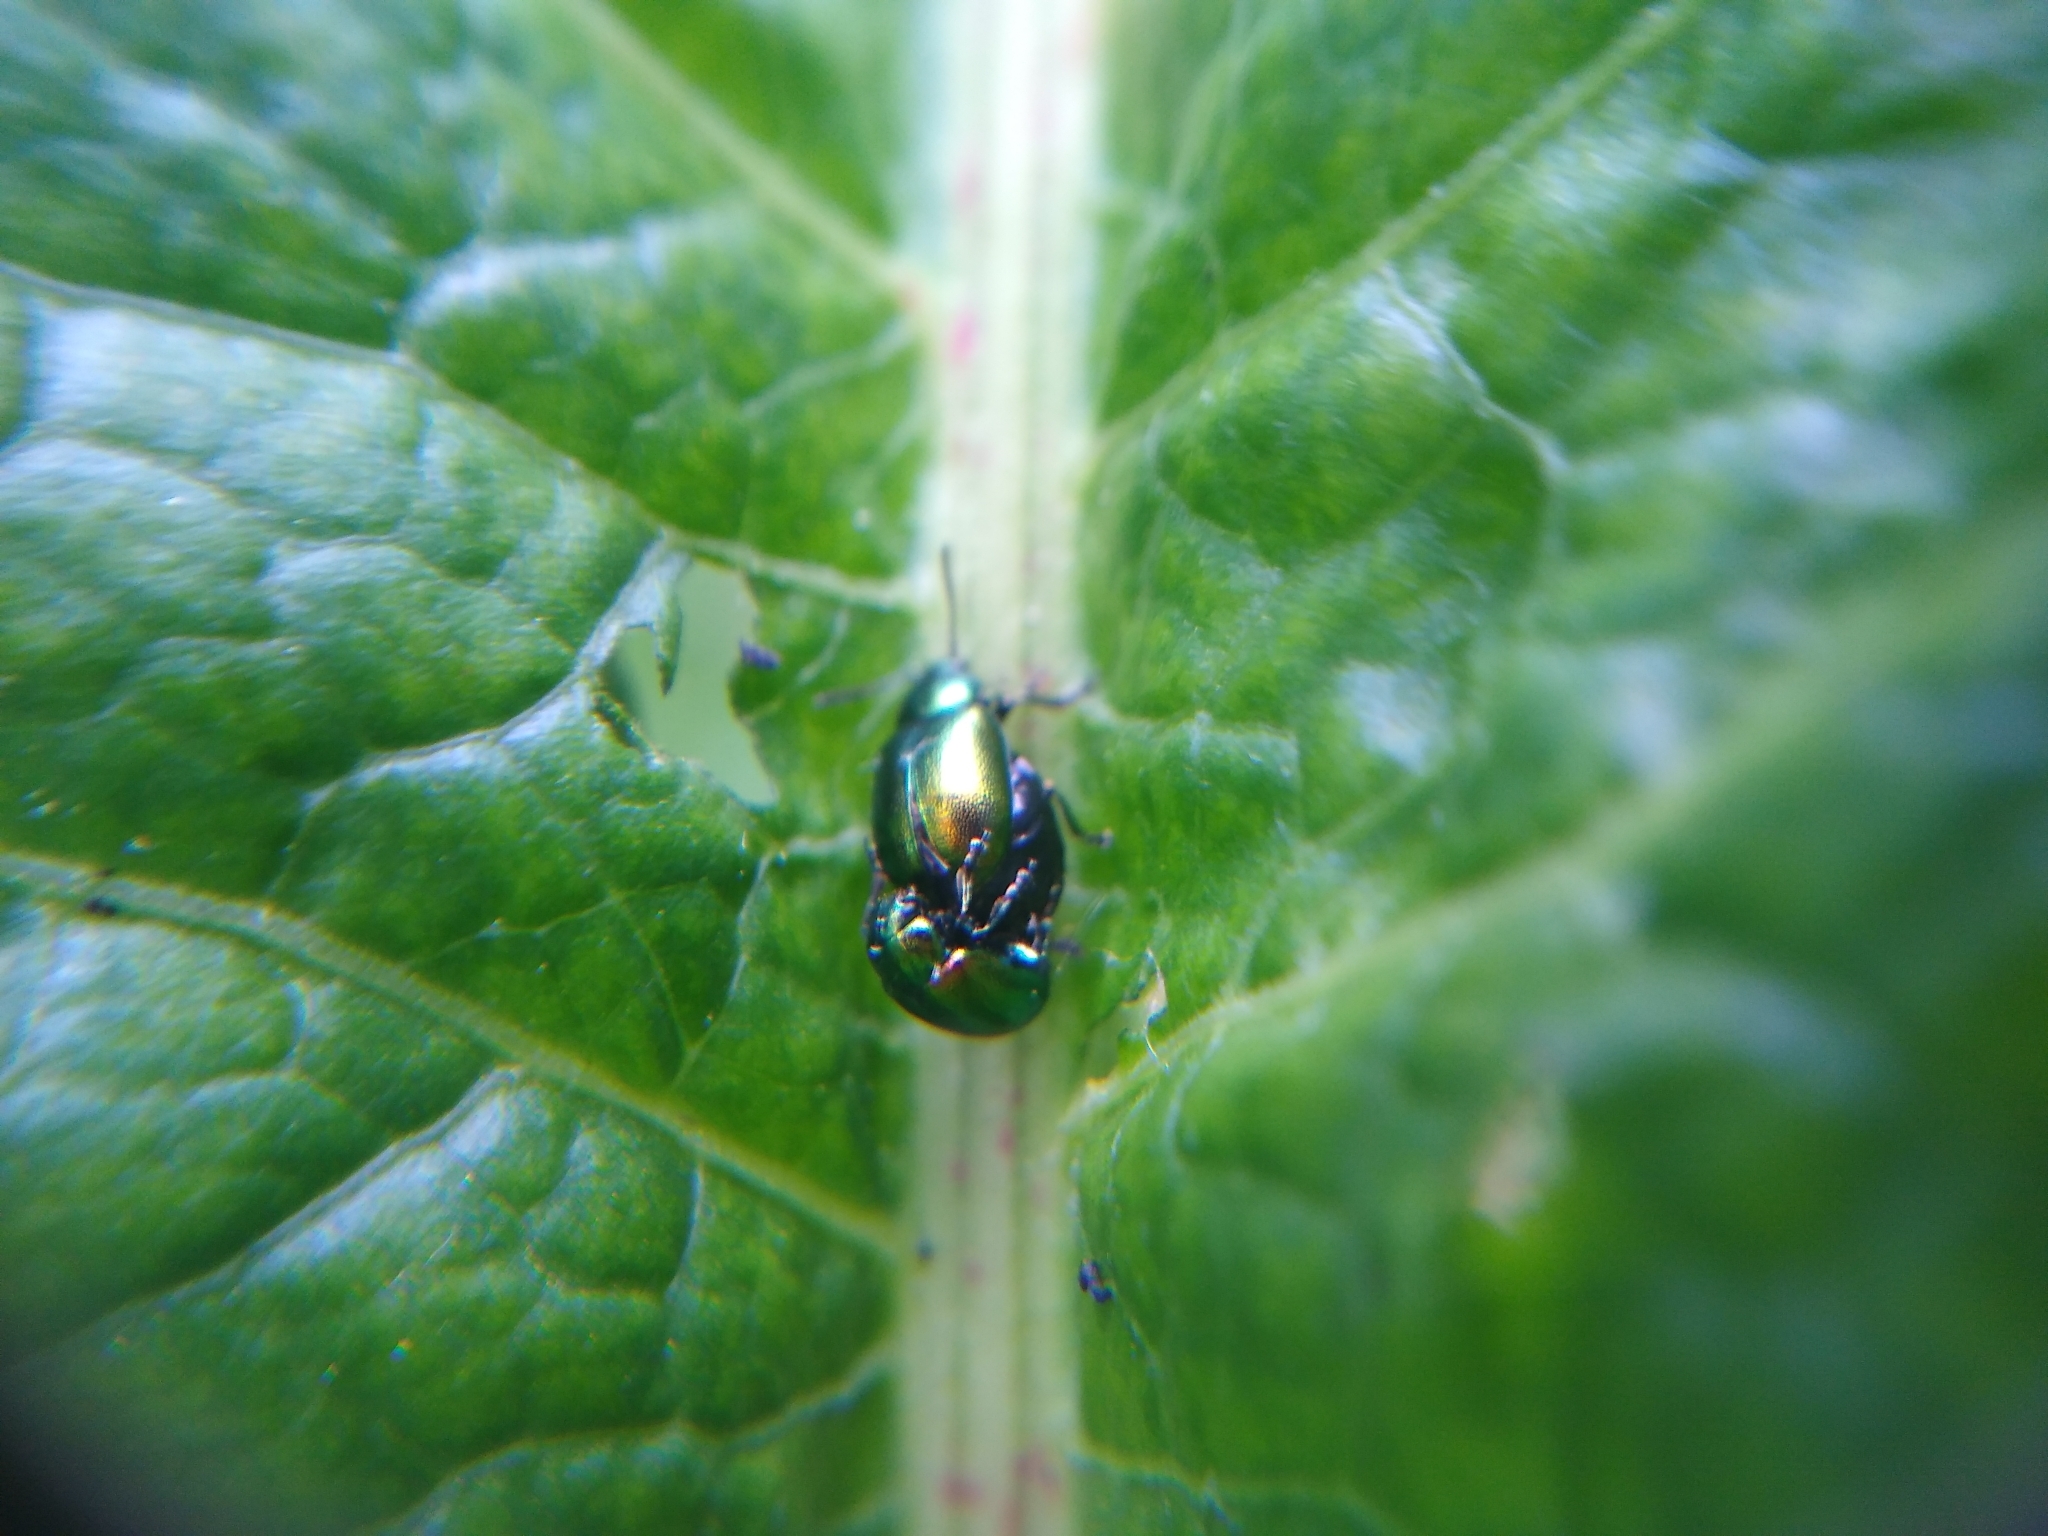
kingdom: Animalia
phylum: Arthropoda
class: Insecta
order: Coleoptera
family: Chrysomelidae
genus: Gastrophysa
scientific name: Gastrophysa viridula
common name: Green dock beetle
